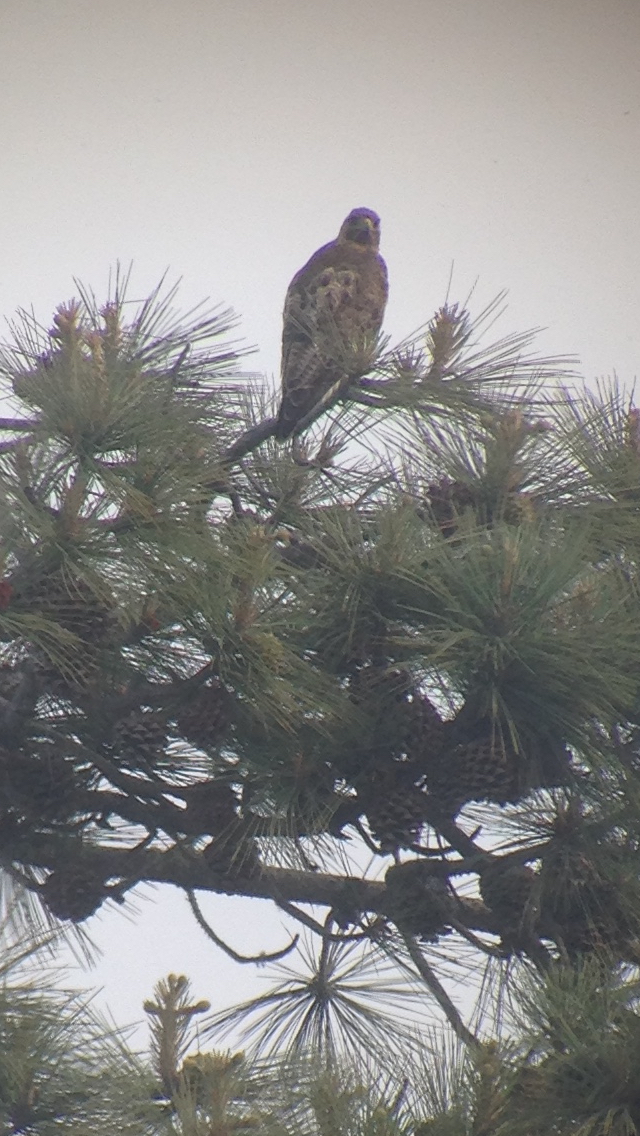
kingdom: Animalia
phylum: Chordata
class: Aves
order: Accipitriformes
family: Accipitridae
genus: Buteo
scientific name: Buteo jamaicensis
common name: Red-tailed hawk
